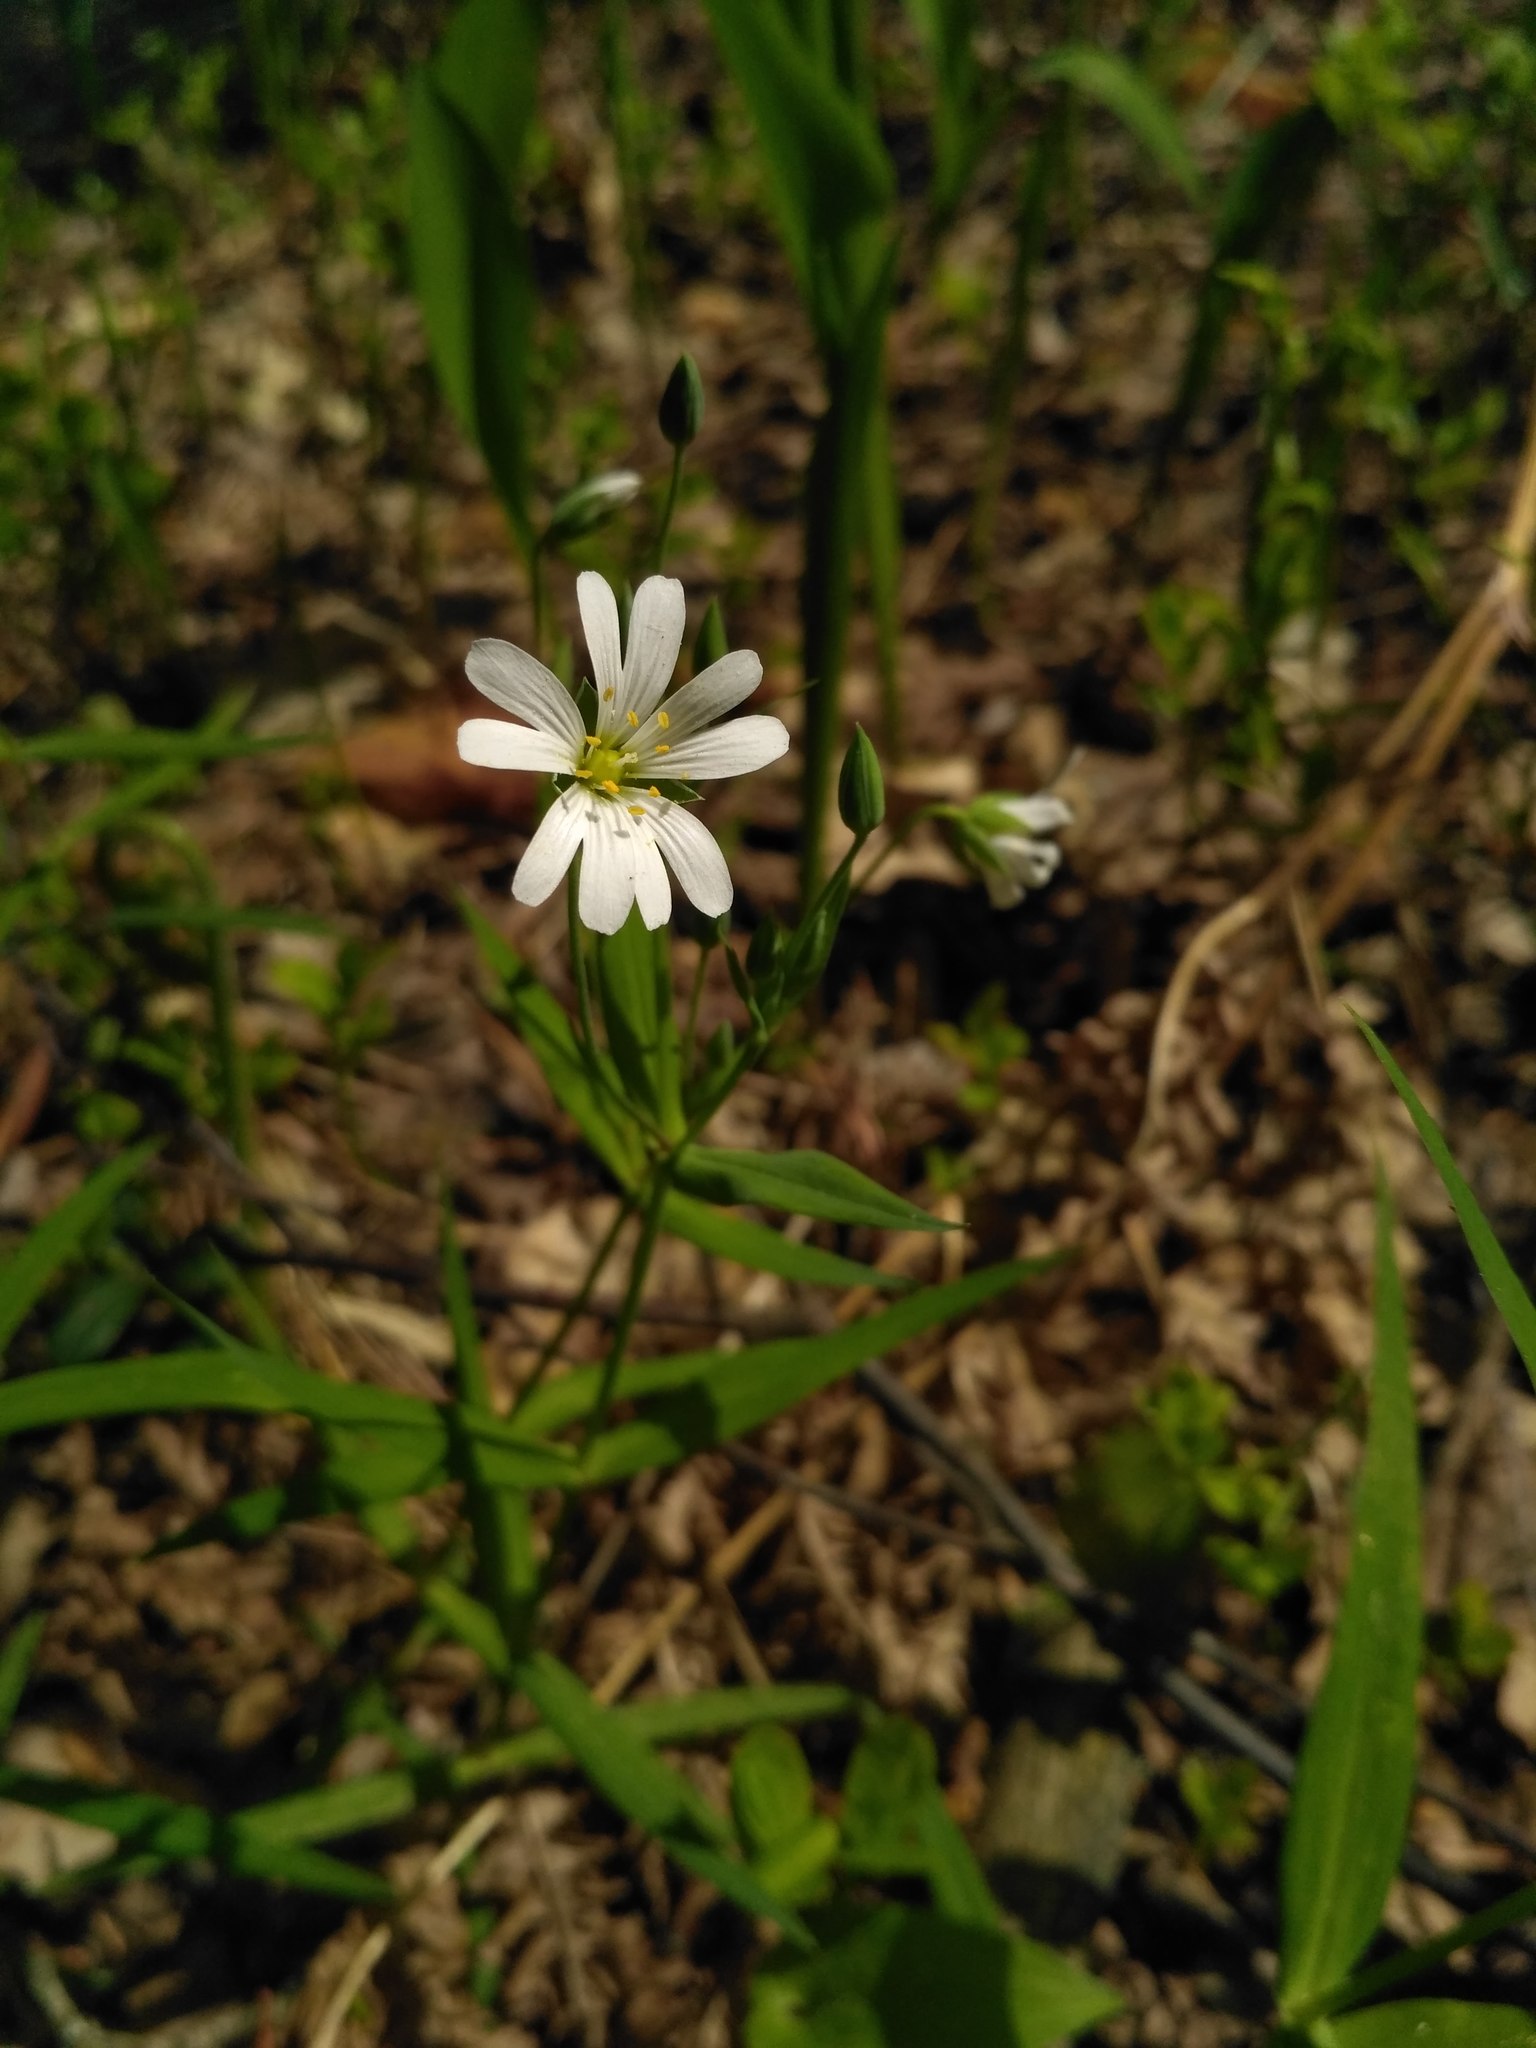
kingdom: Plantae
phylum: Tracheophyta
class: Magnoliopsida
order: Caryophyllales
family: Caryophyllaceae
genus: Rabelera
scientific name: Rabelera holostea
